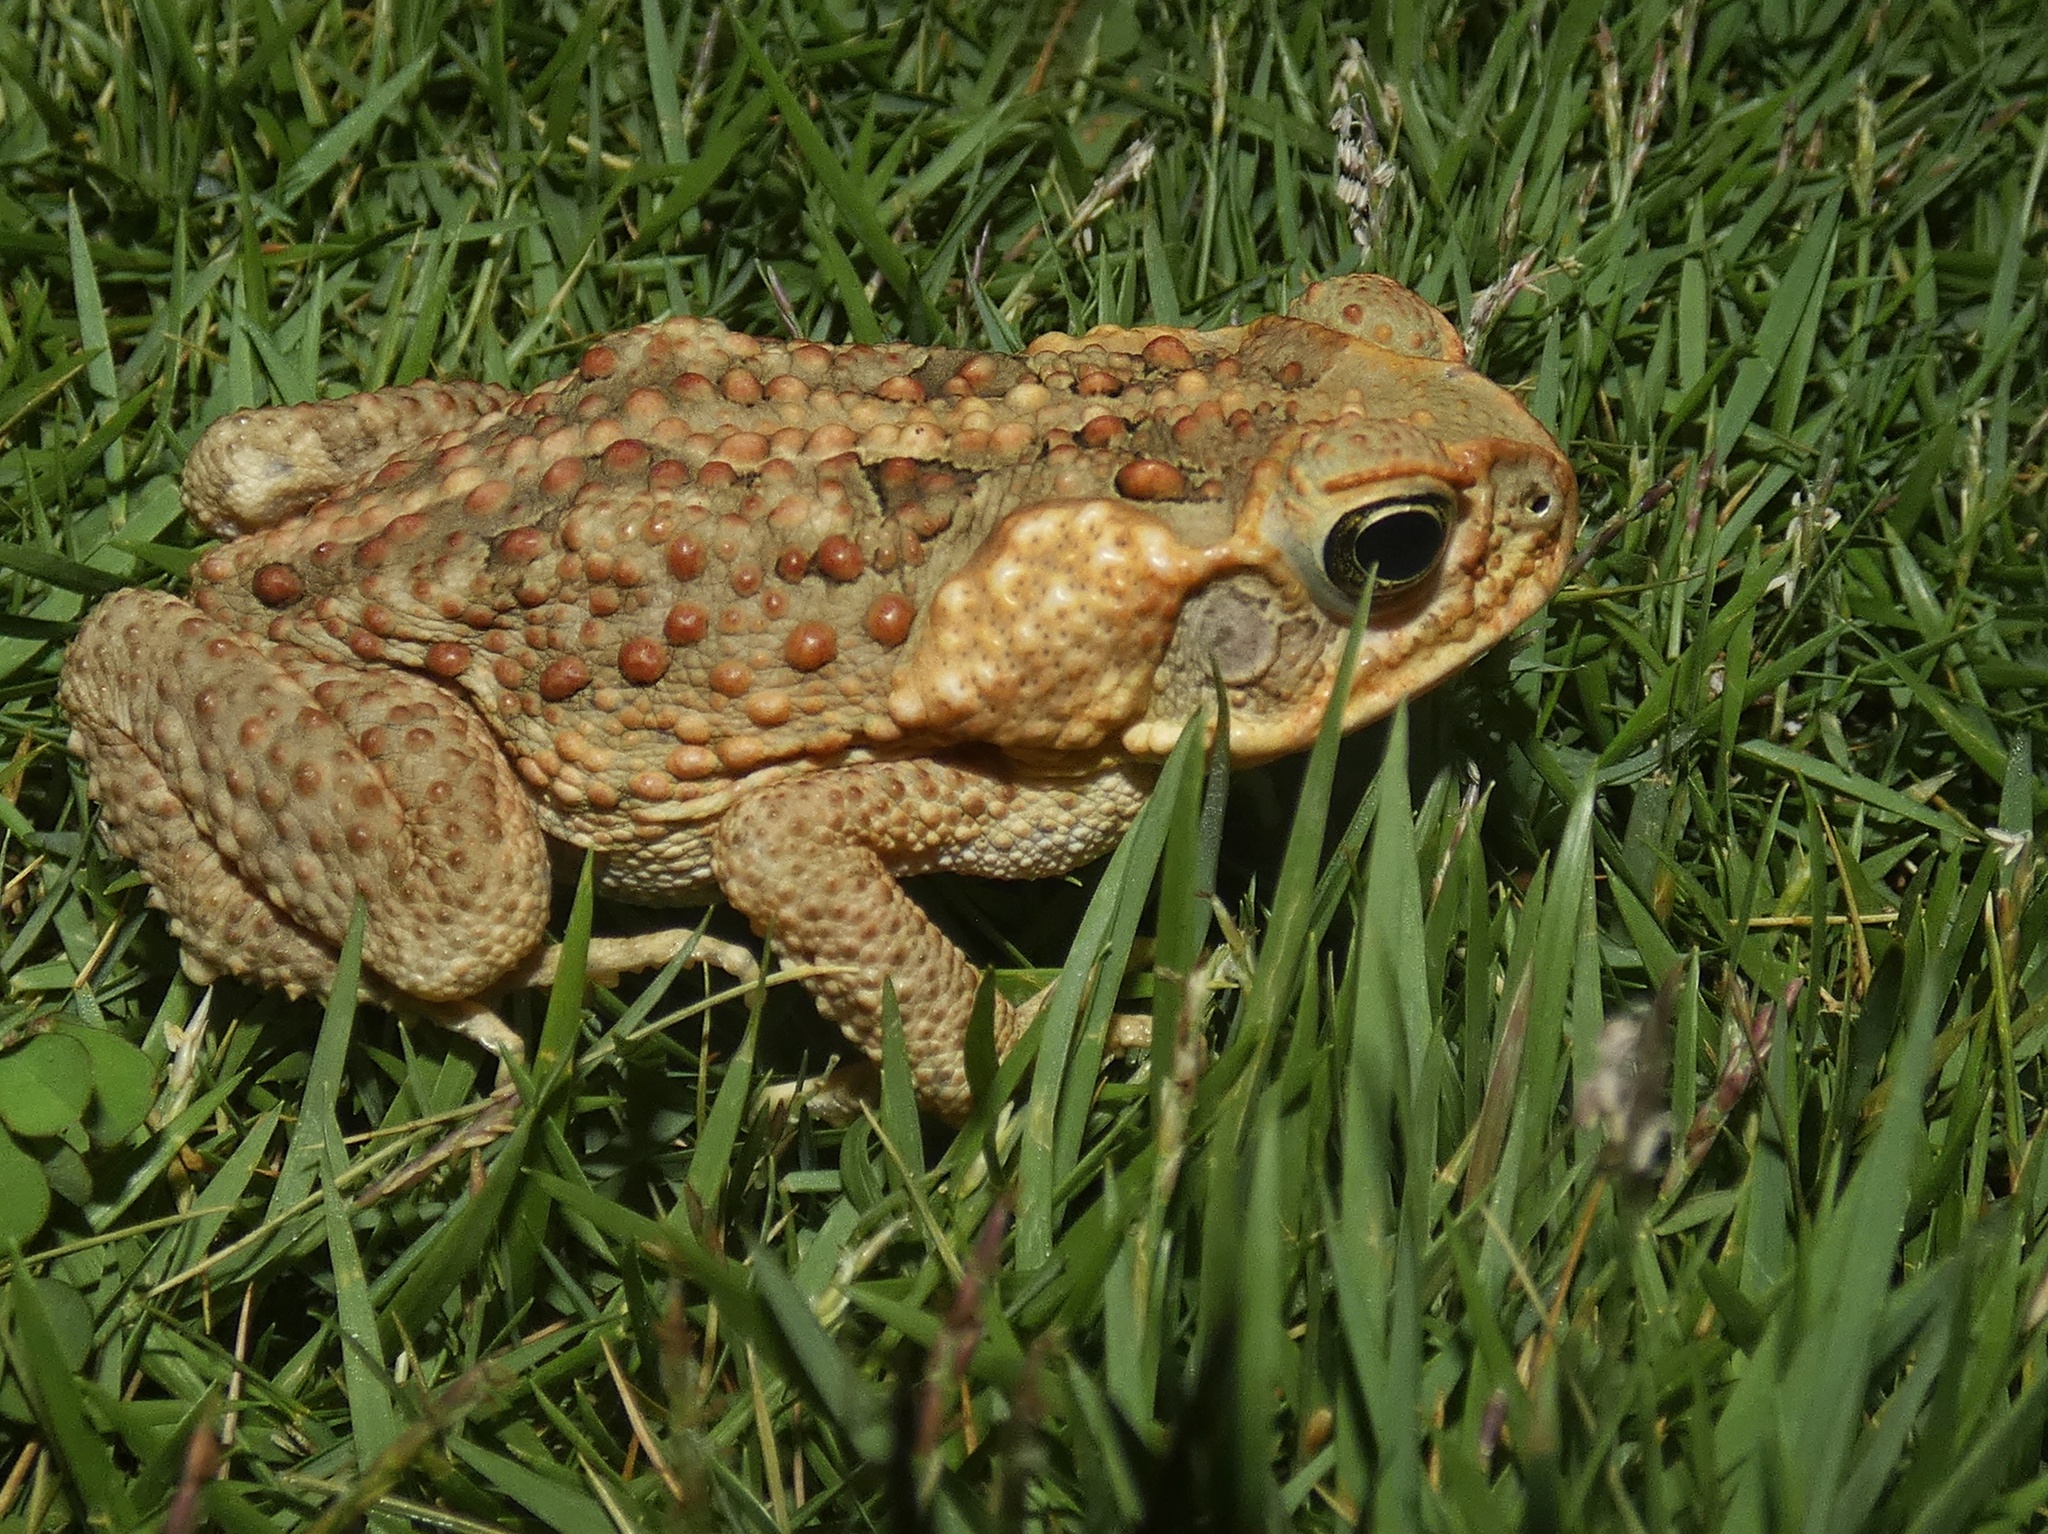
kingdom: Animalia
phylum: Chordata
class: Amphibia
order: Anura
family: Bufonidae
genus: Rhinella
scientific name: Rhinella marina
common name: Cane toad
